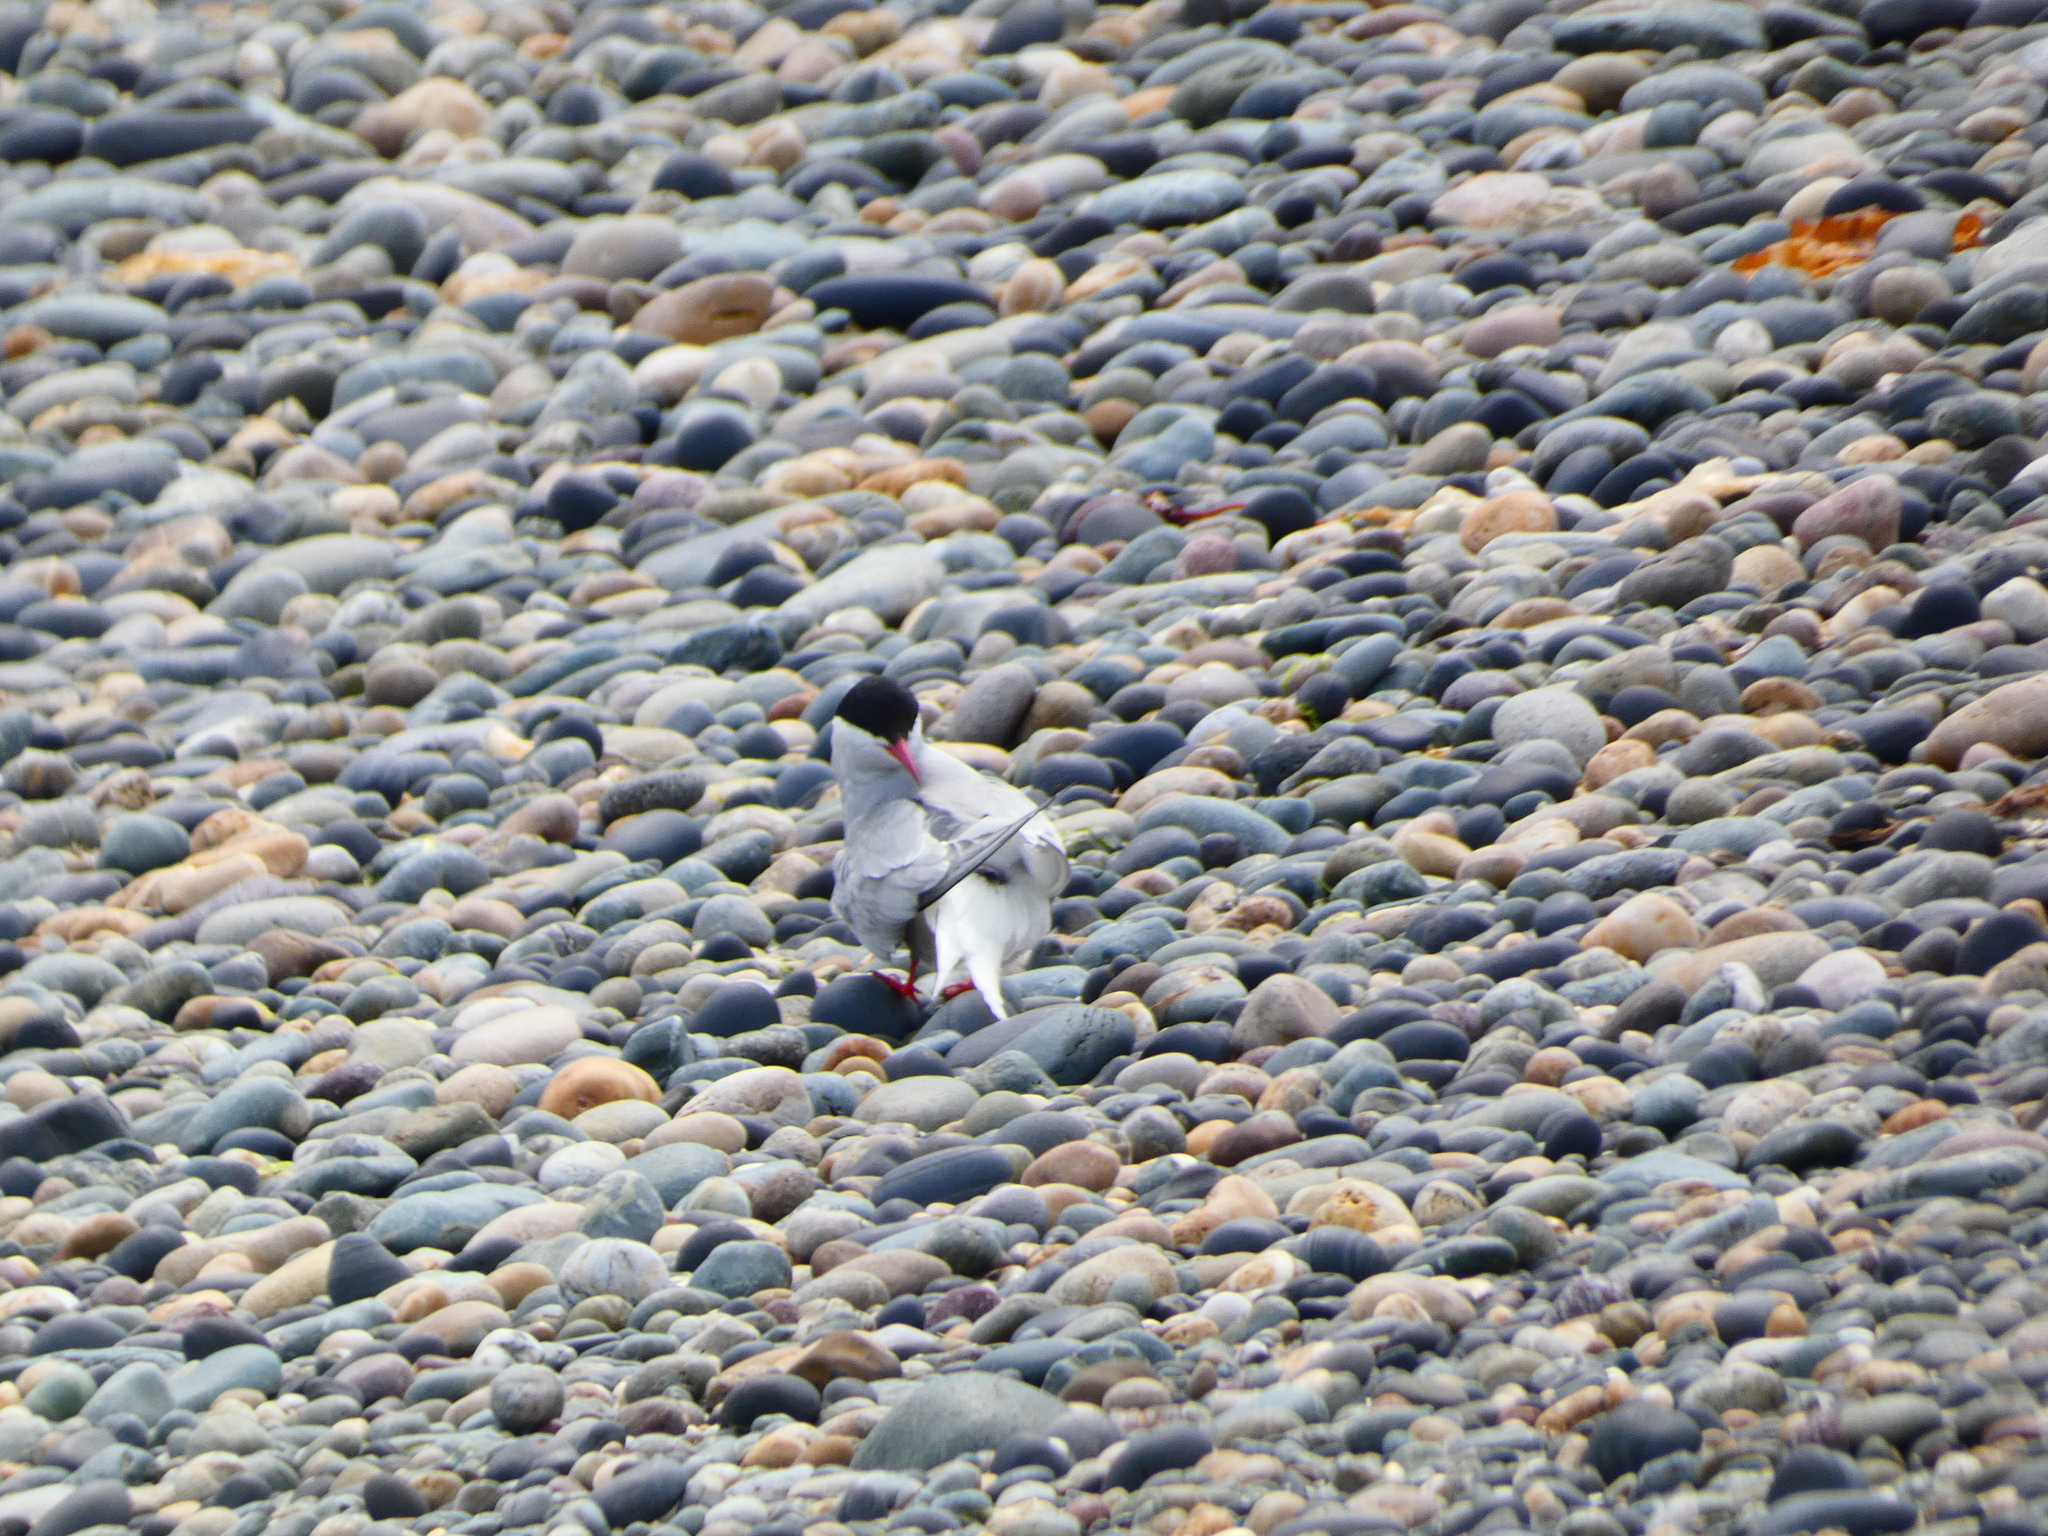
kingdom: Animalia
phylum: Chordata
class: Aves
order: Charadriiformes
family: Laridae
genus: Sterna
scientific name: Sterna paradisaea
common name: Arctic tern
